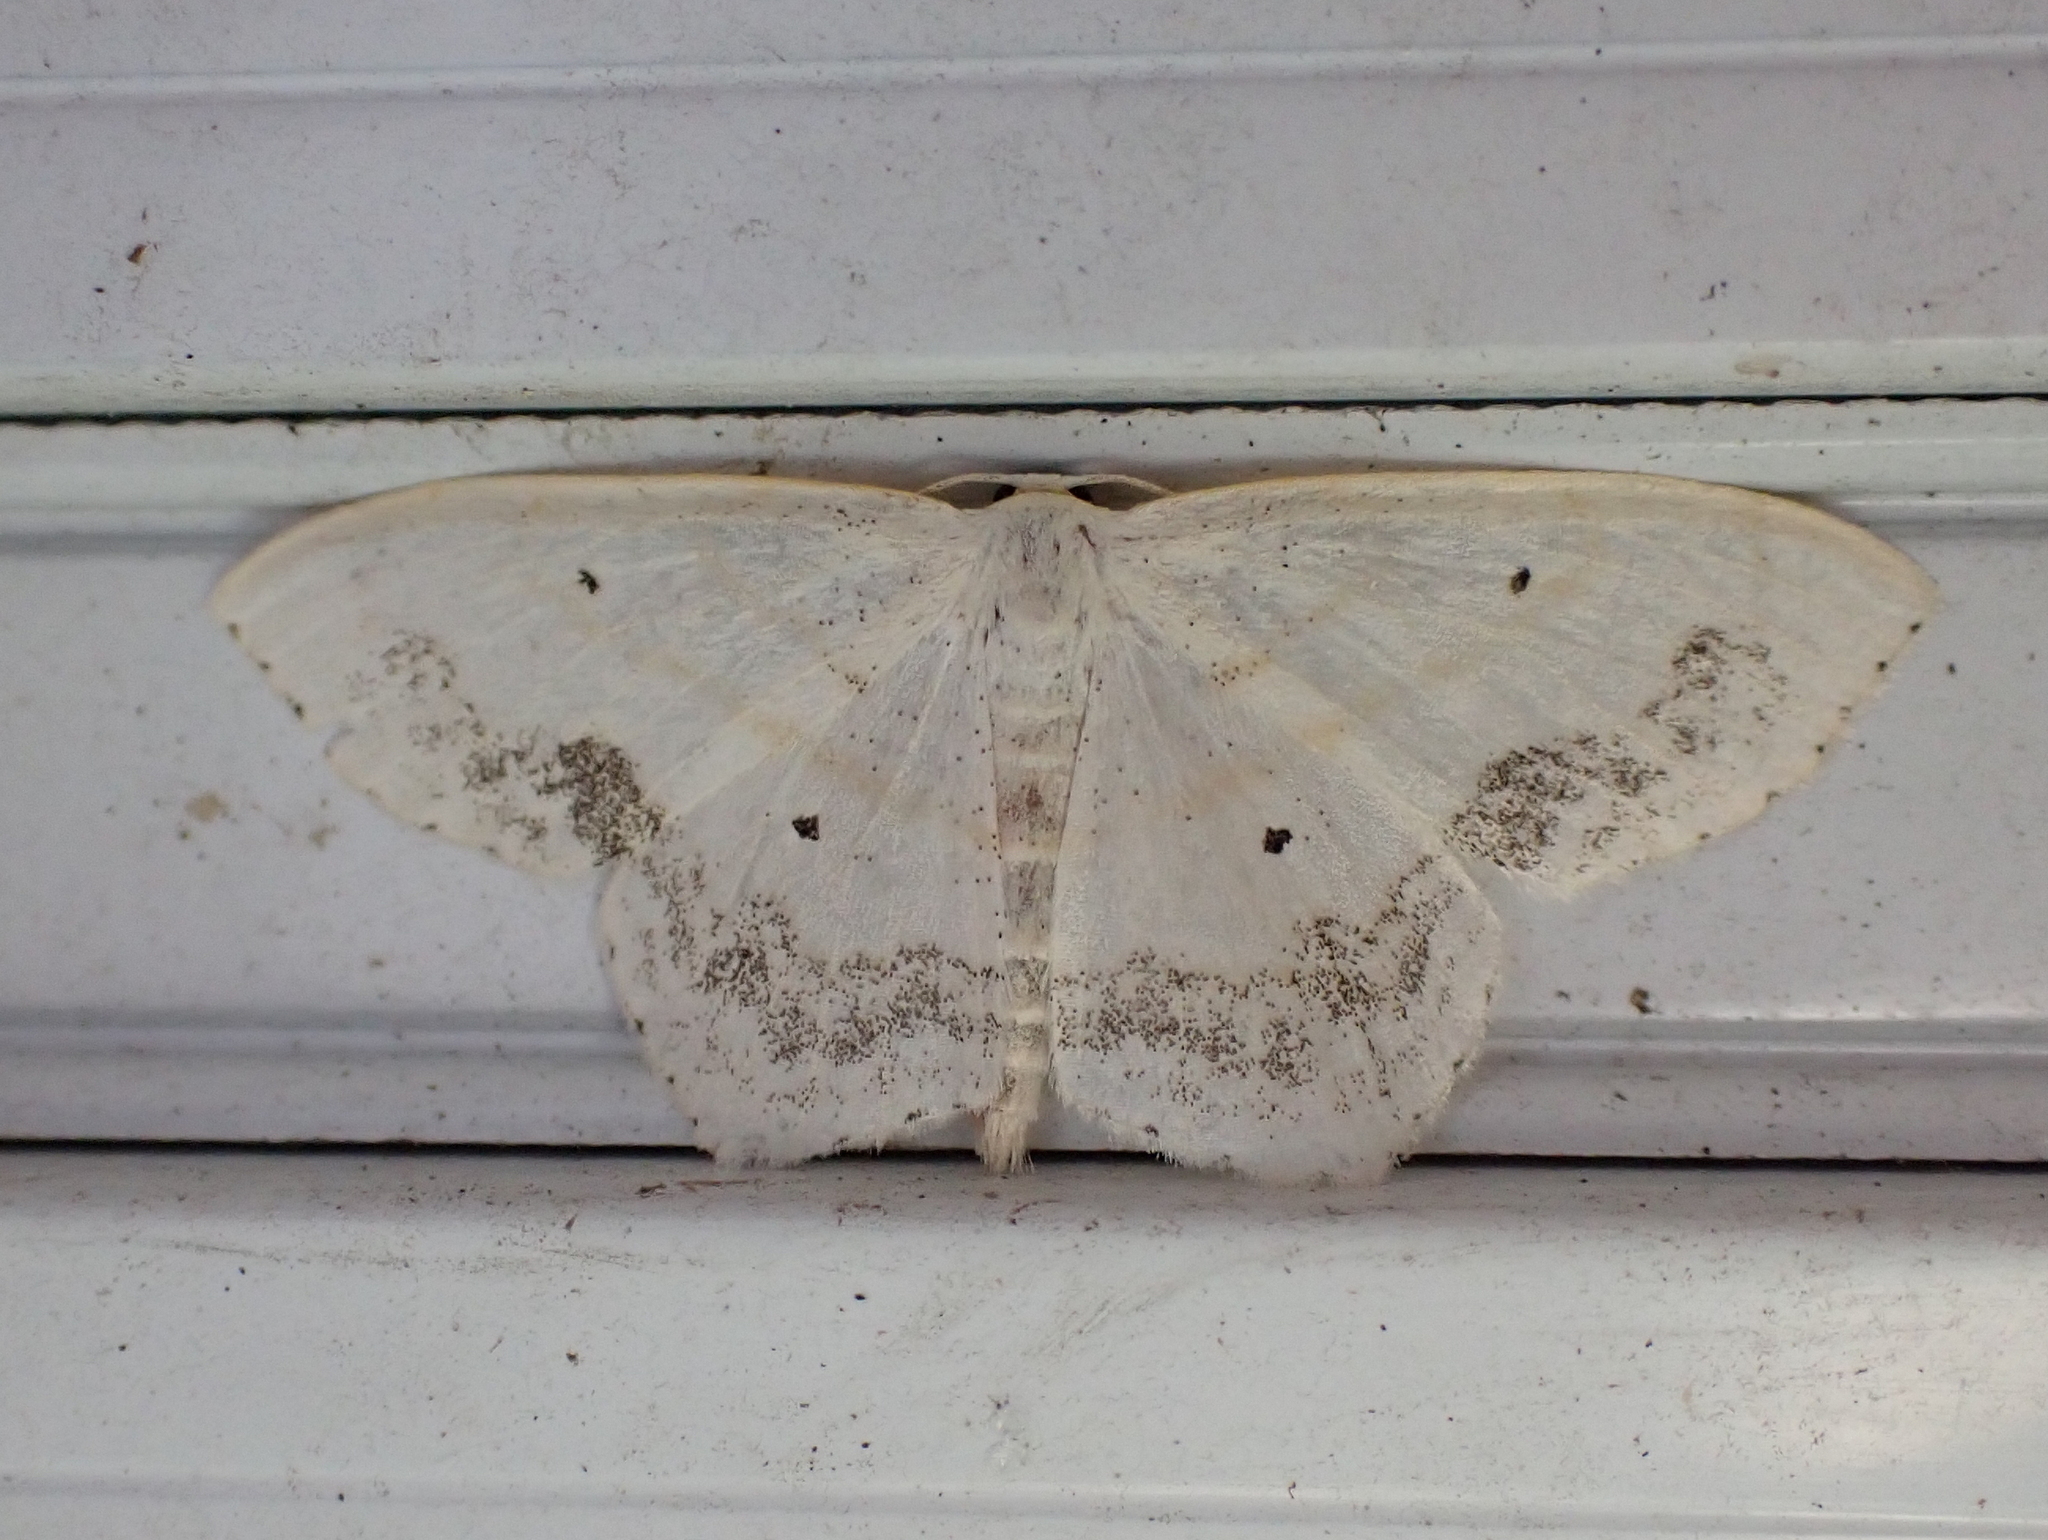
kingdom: Animalia
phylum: Arthropoda
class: Insecta
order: Lepidoptera
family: Geometridae
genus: Scopula
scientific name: Scopula limboundata
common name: Large lace border
